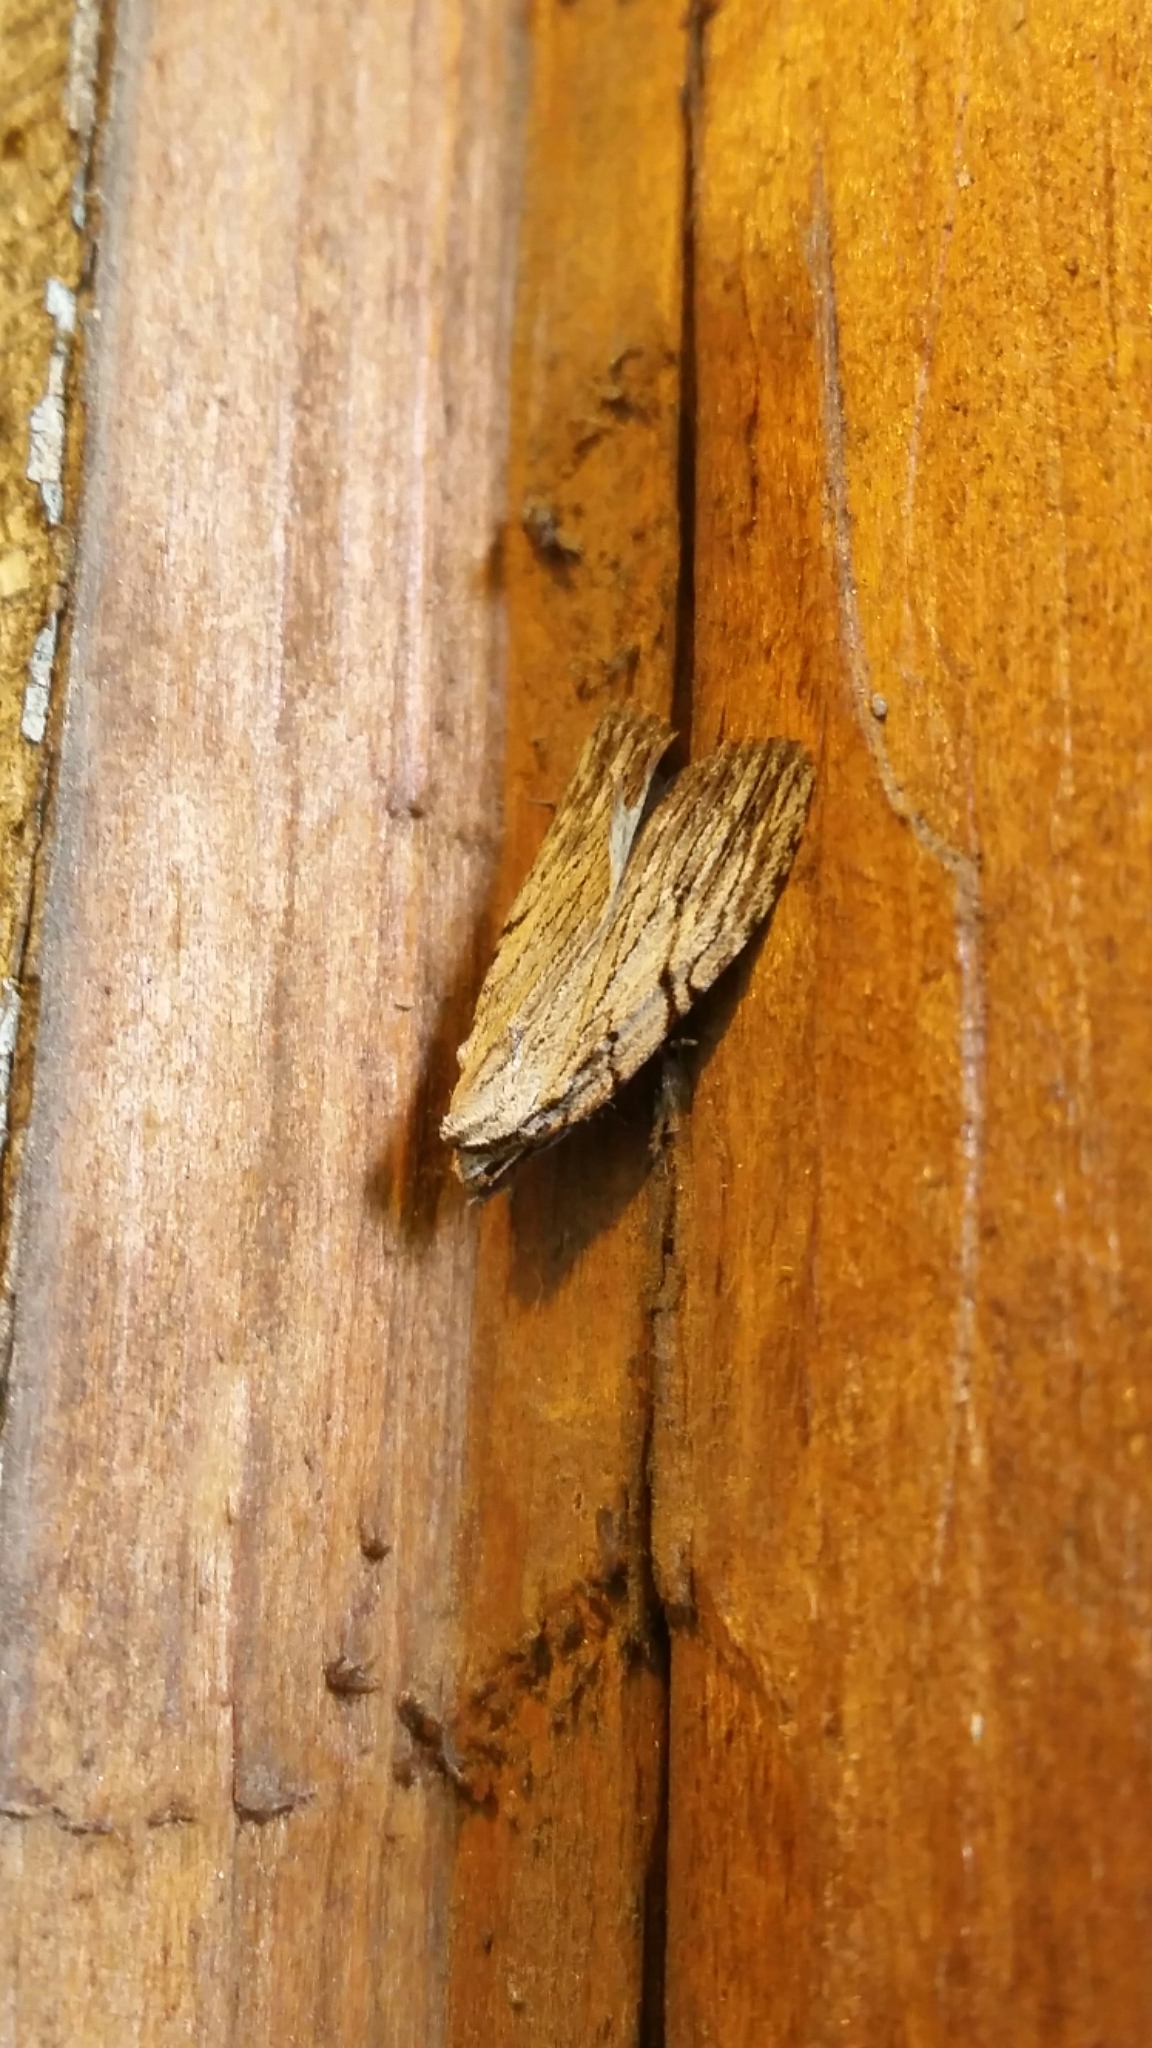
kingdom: Animalia
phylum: Arthropoda
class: Insecta
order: Lepidoptera
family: Noctuidae
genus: Balsa
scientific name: Balsa tristrigella
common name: Three-lined balsa moth
